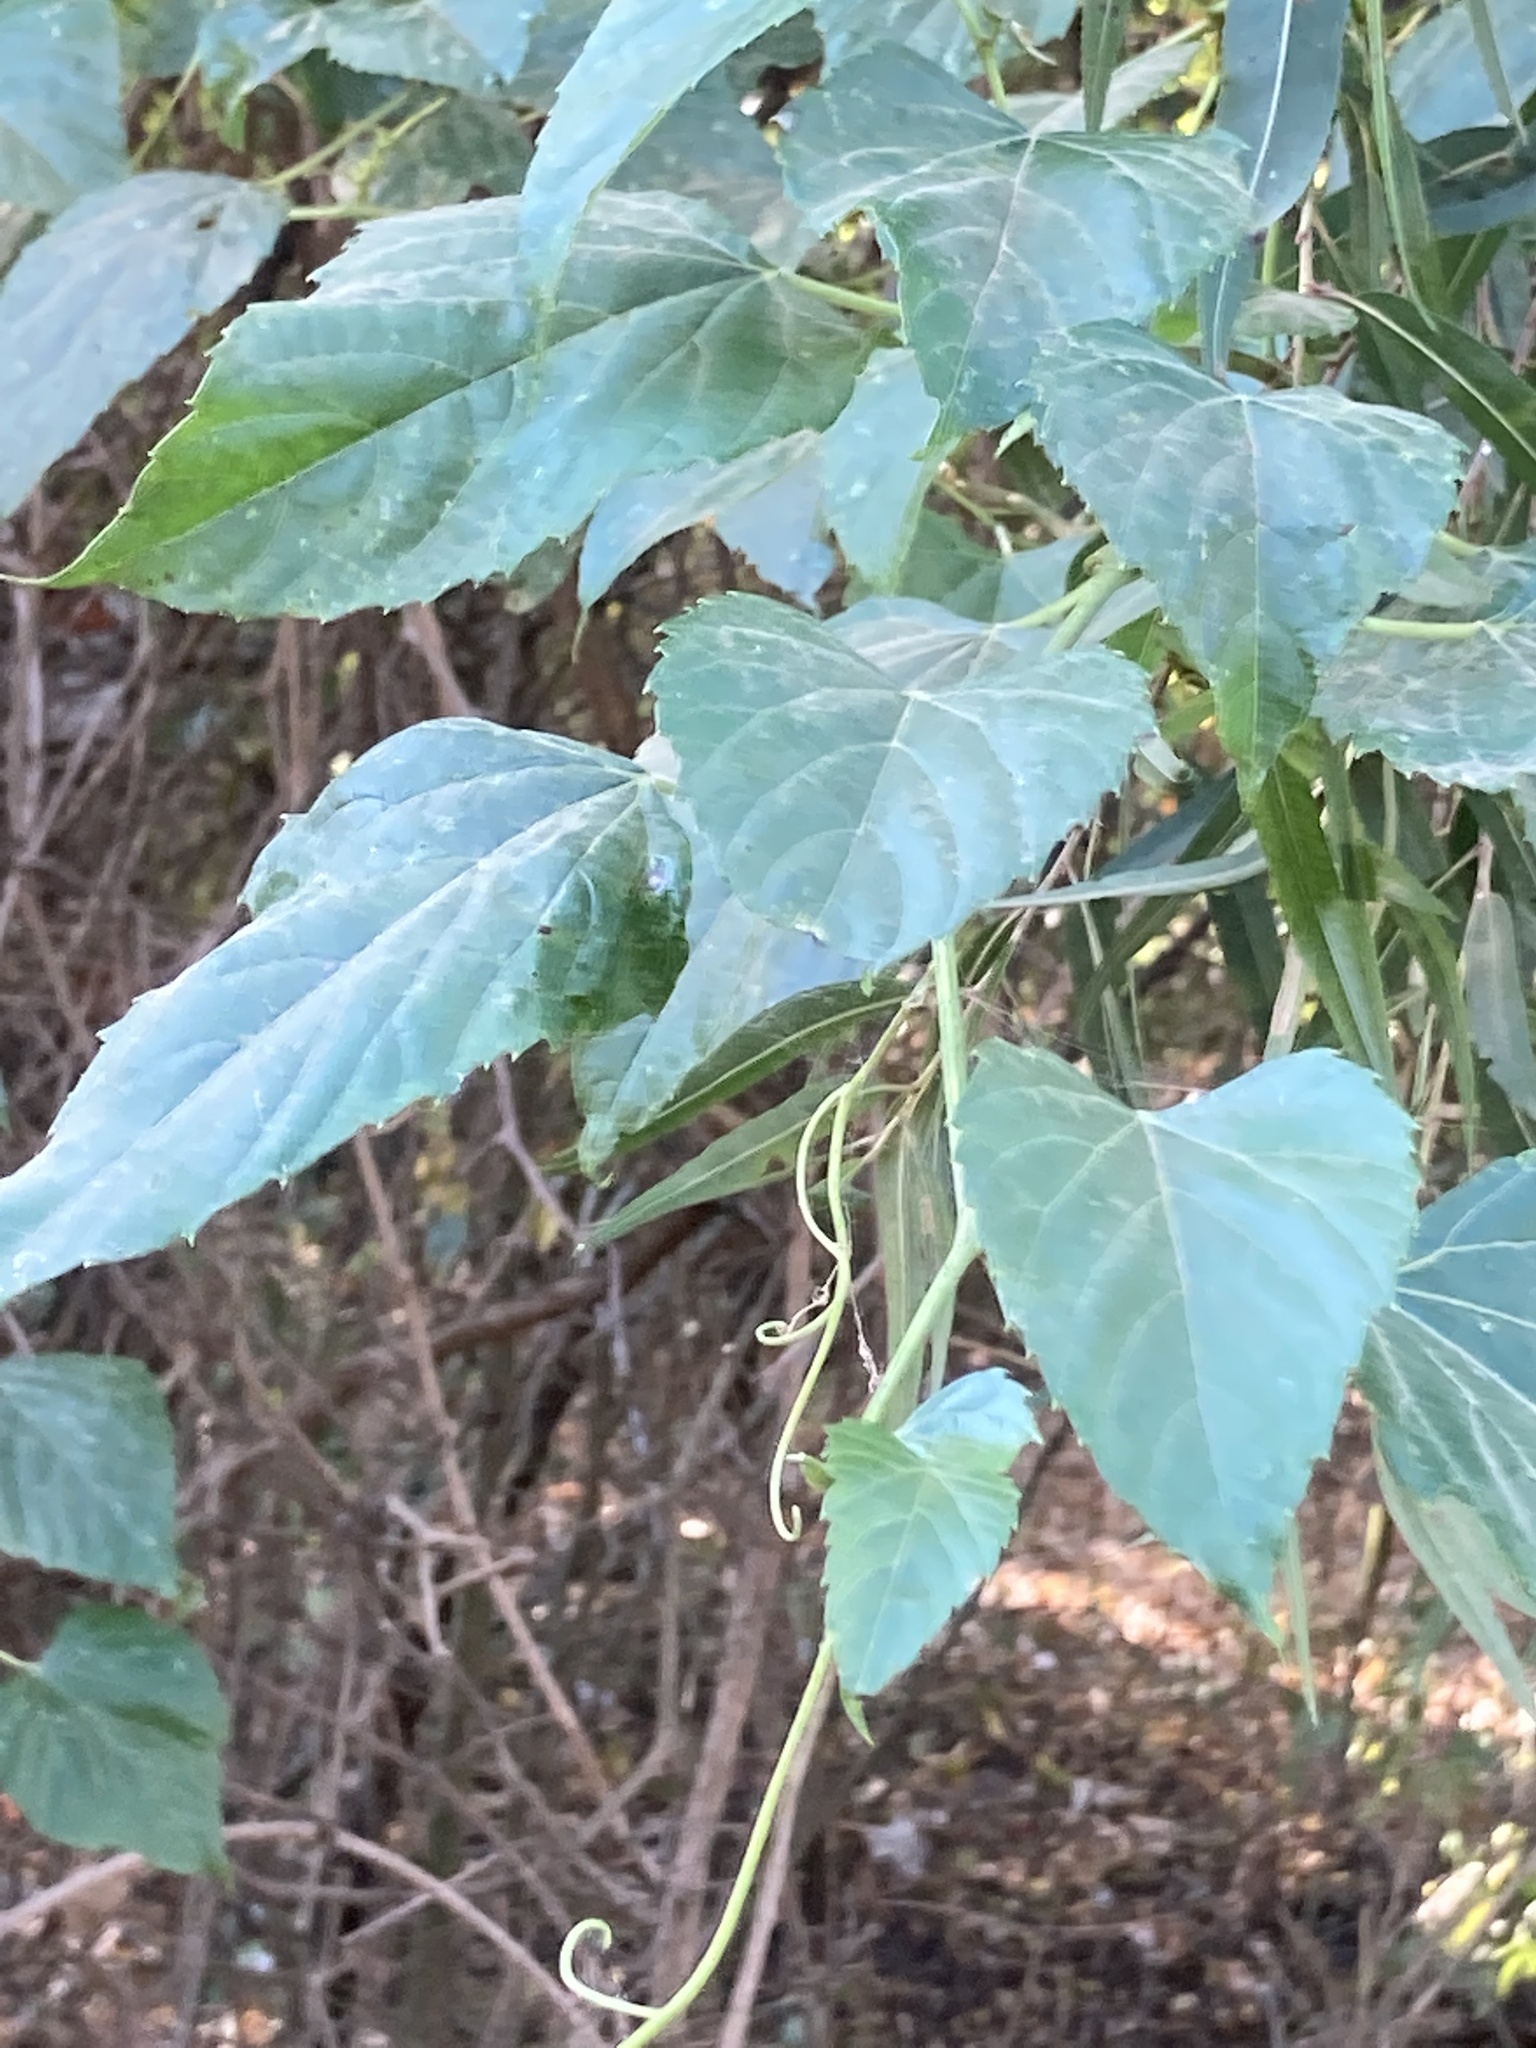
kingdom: Plantae
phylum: Tracheophyta
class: Magnoliopsida
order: Vitales
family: Vitaceae
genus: Ampelopsis
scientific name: Ampelopsis cordata
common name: Heart-leaf ampelopsis
